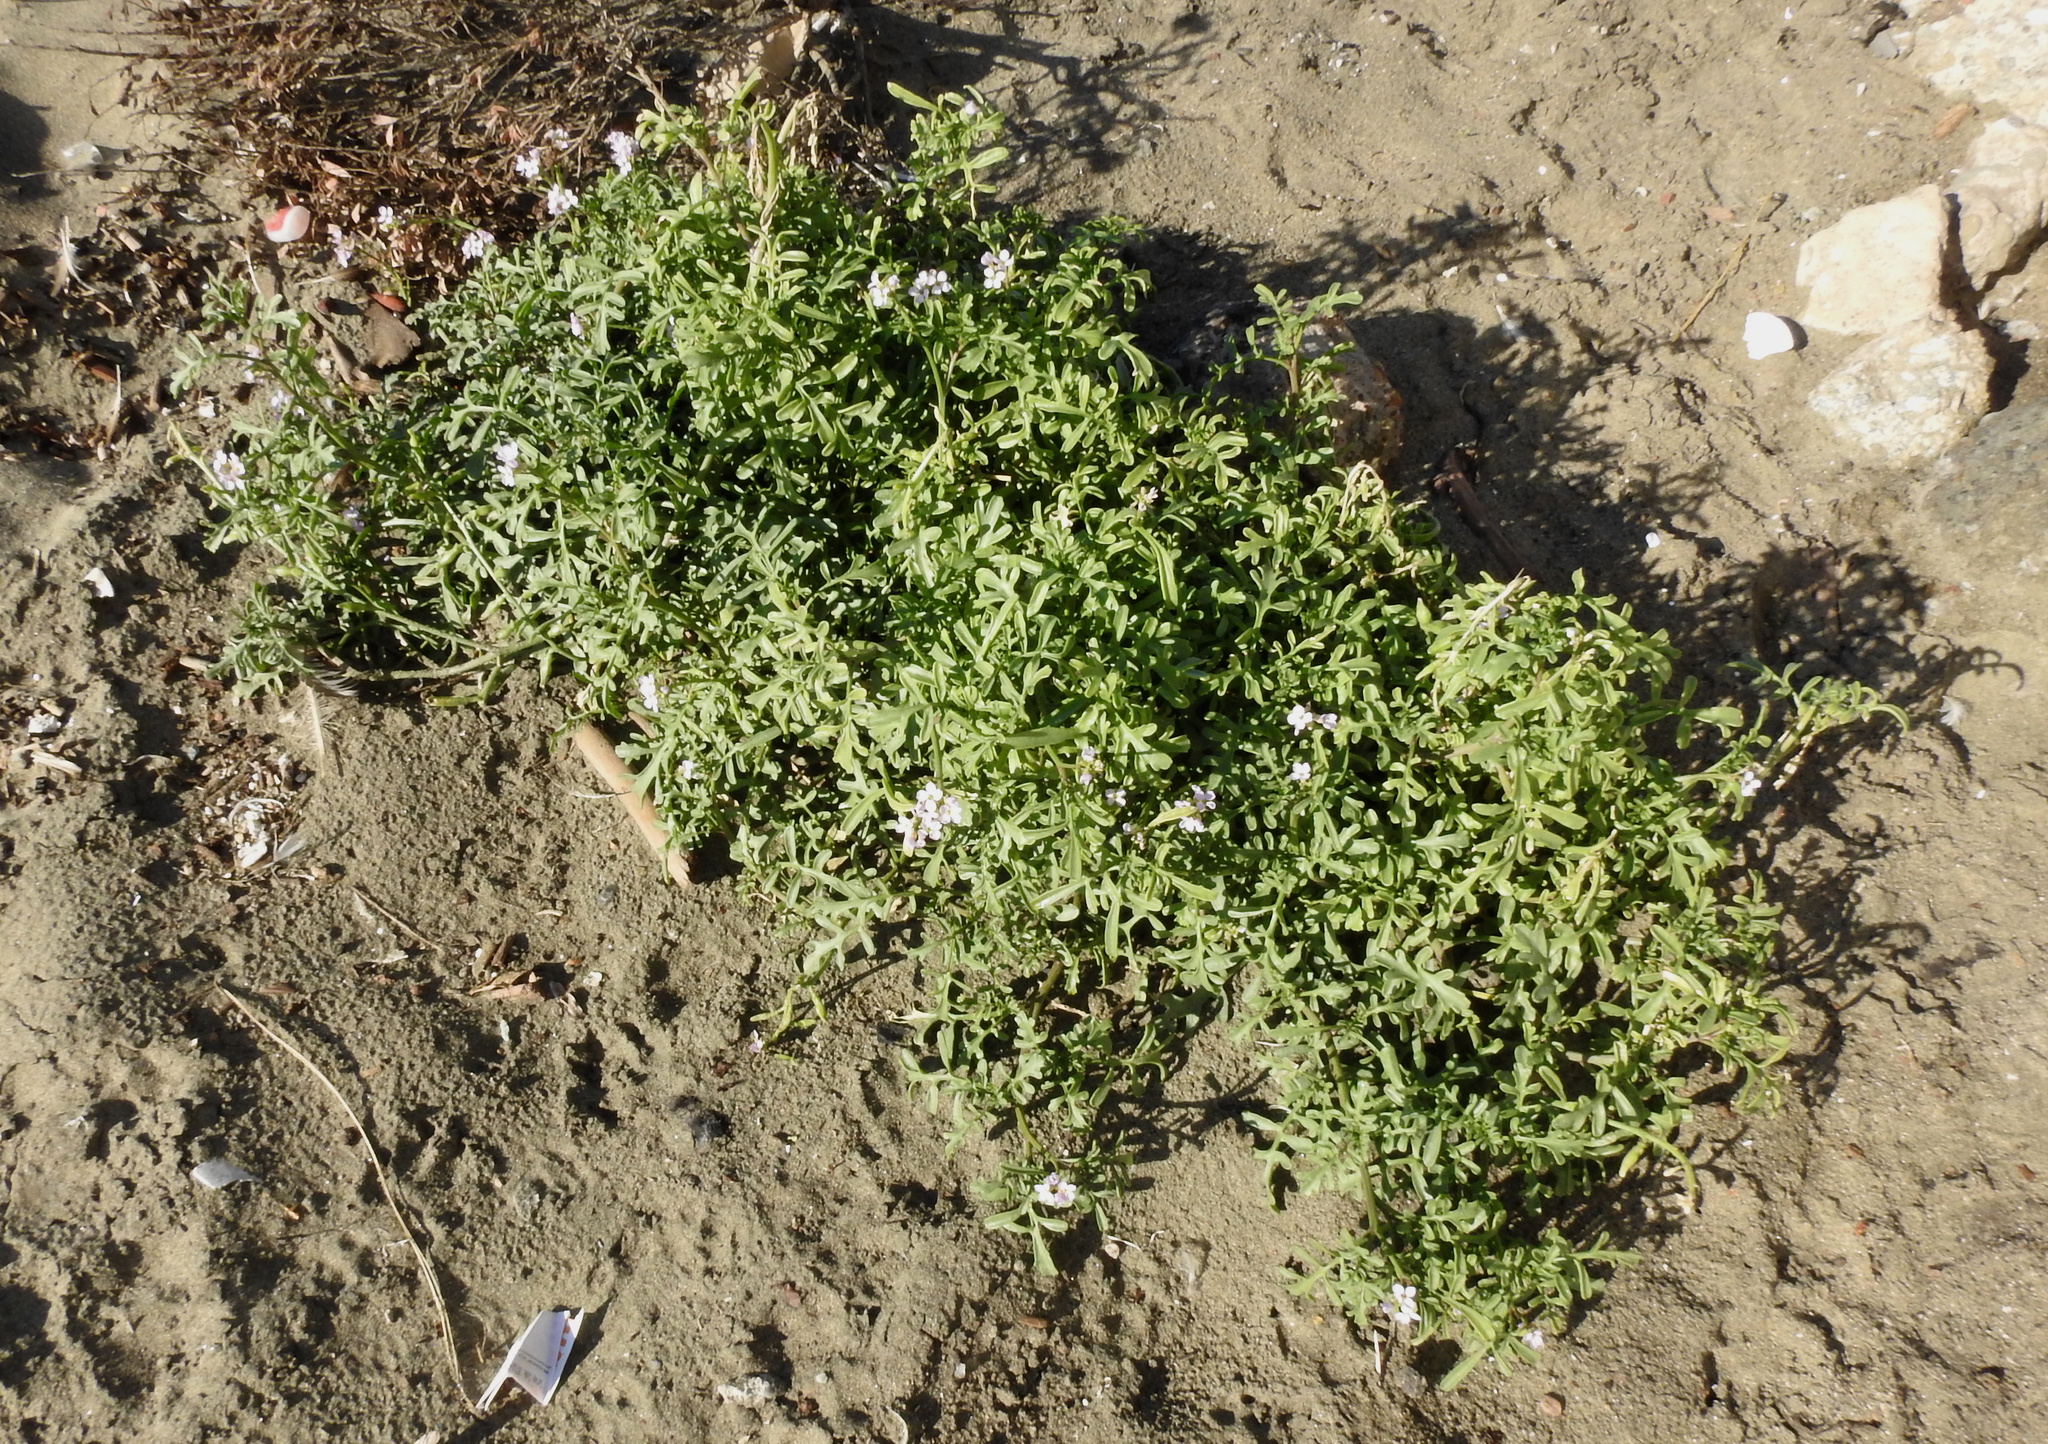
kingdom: Plantae
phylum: Tracheophyta
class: Magnoliopsida
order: Brassicales
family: Brassicaceae
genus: Cakile
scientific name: Cakile maritima
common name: Sea rocket
